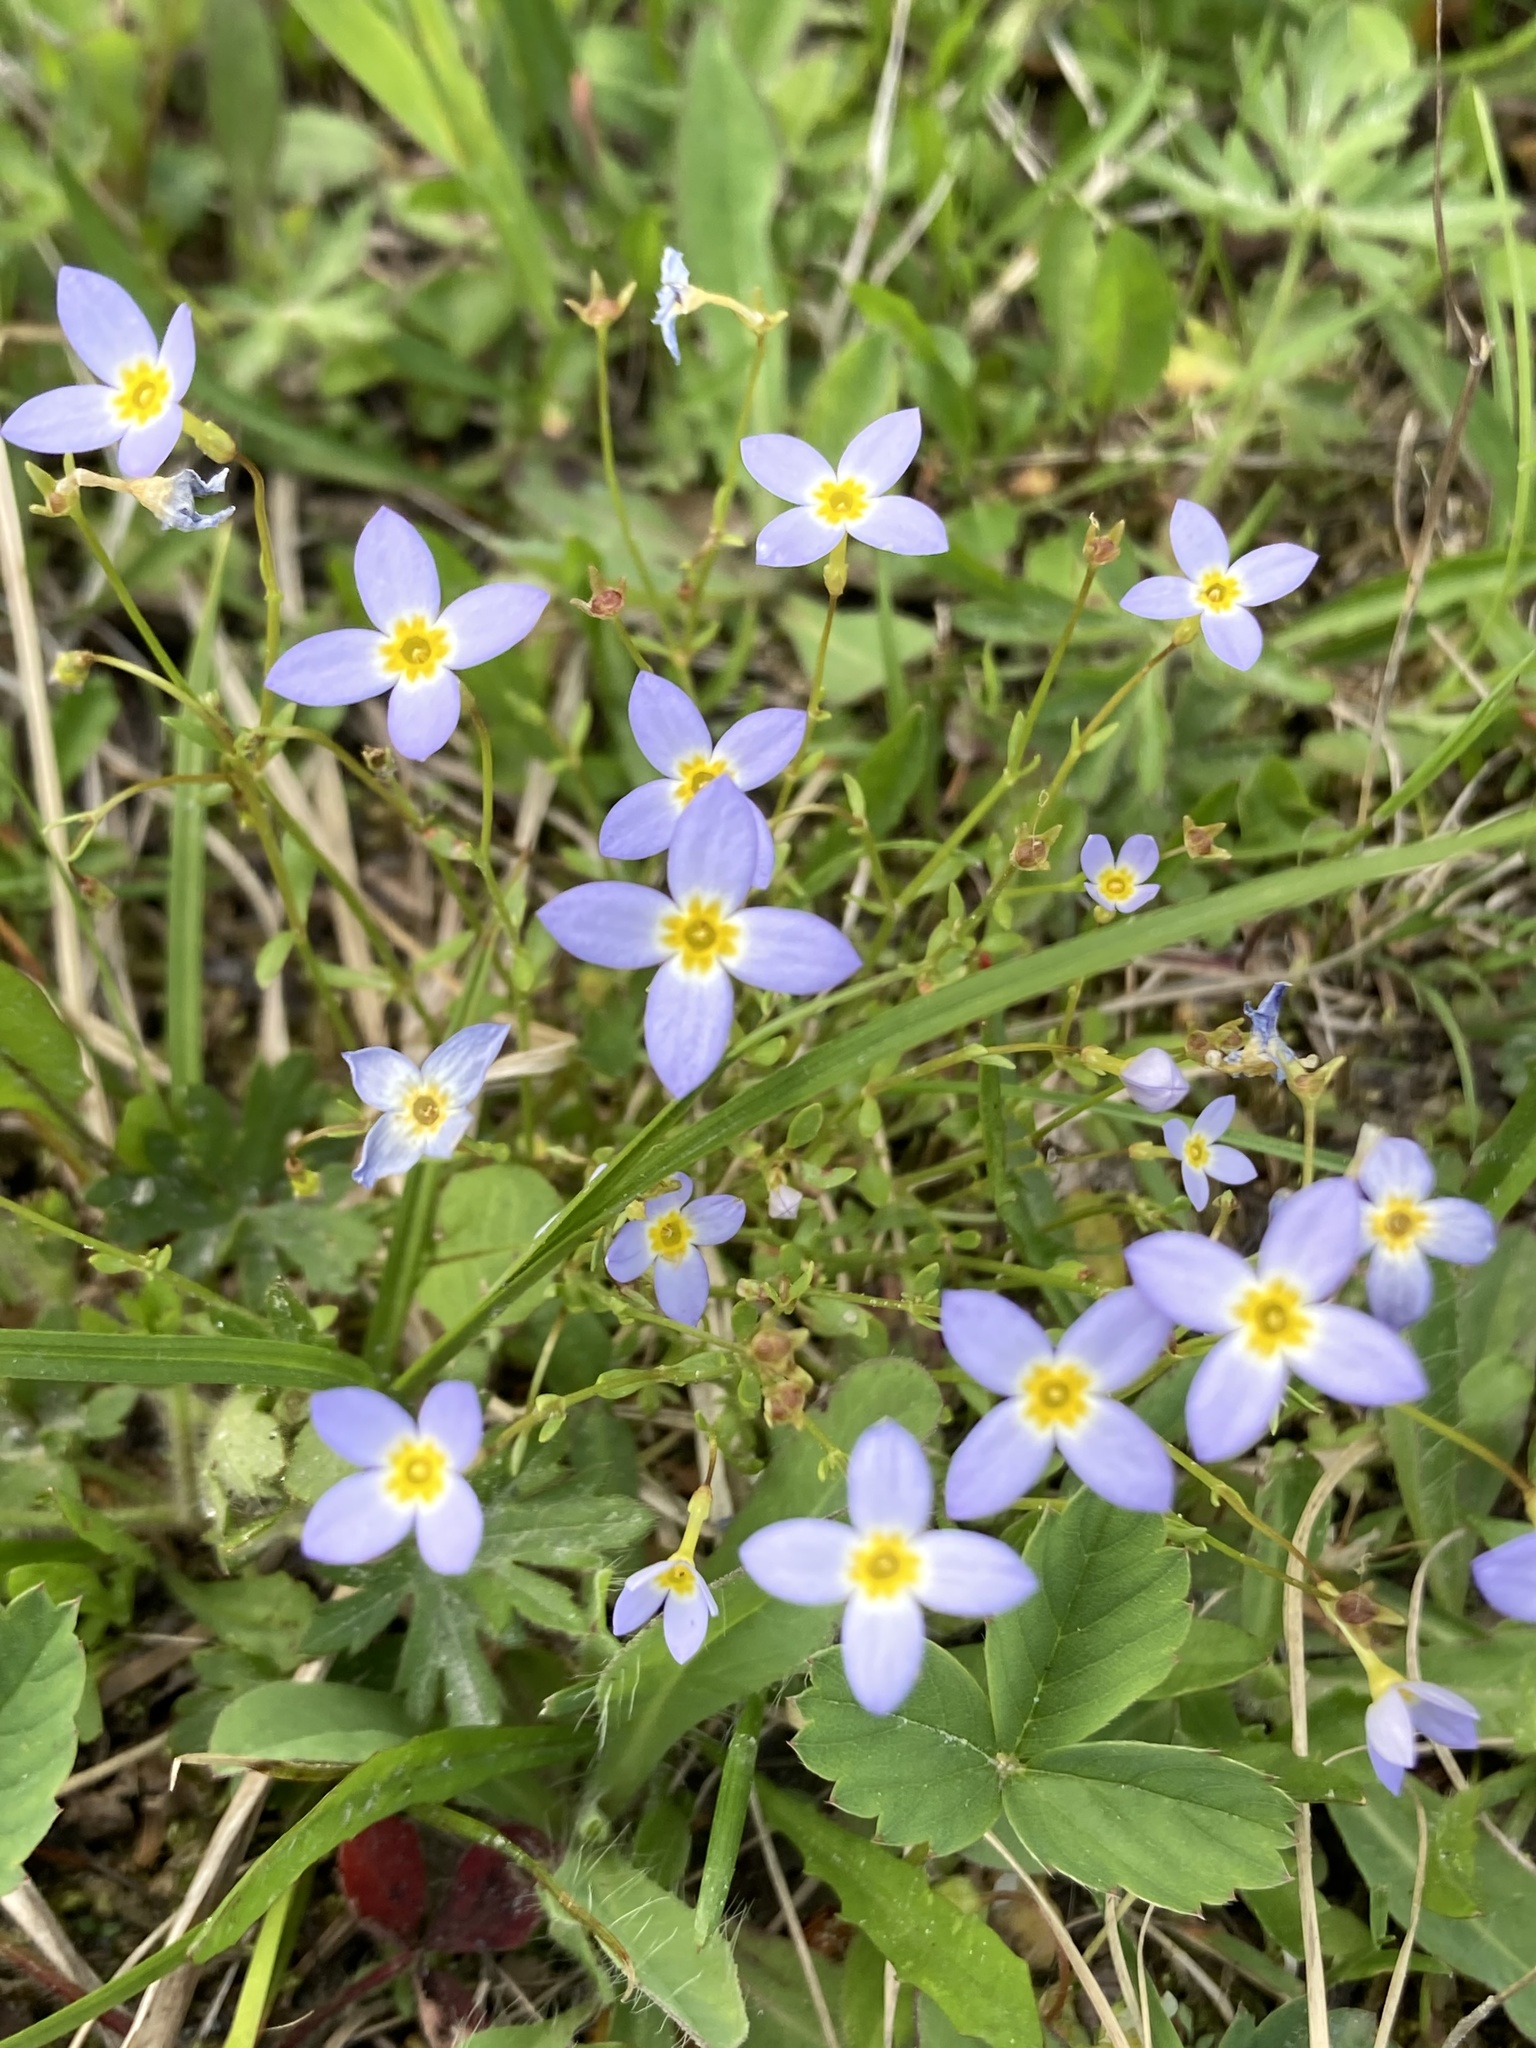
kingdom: Plantae
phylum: Tracheophyta
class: Magnoliopsida
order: Gentianales
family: Rubiaceae
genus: Houstonia
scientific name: Houstonia caerulea
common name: Bluets
